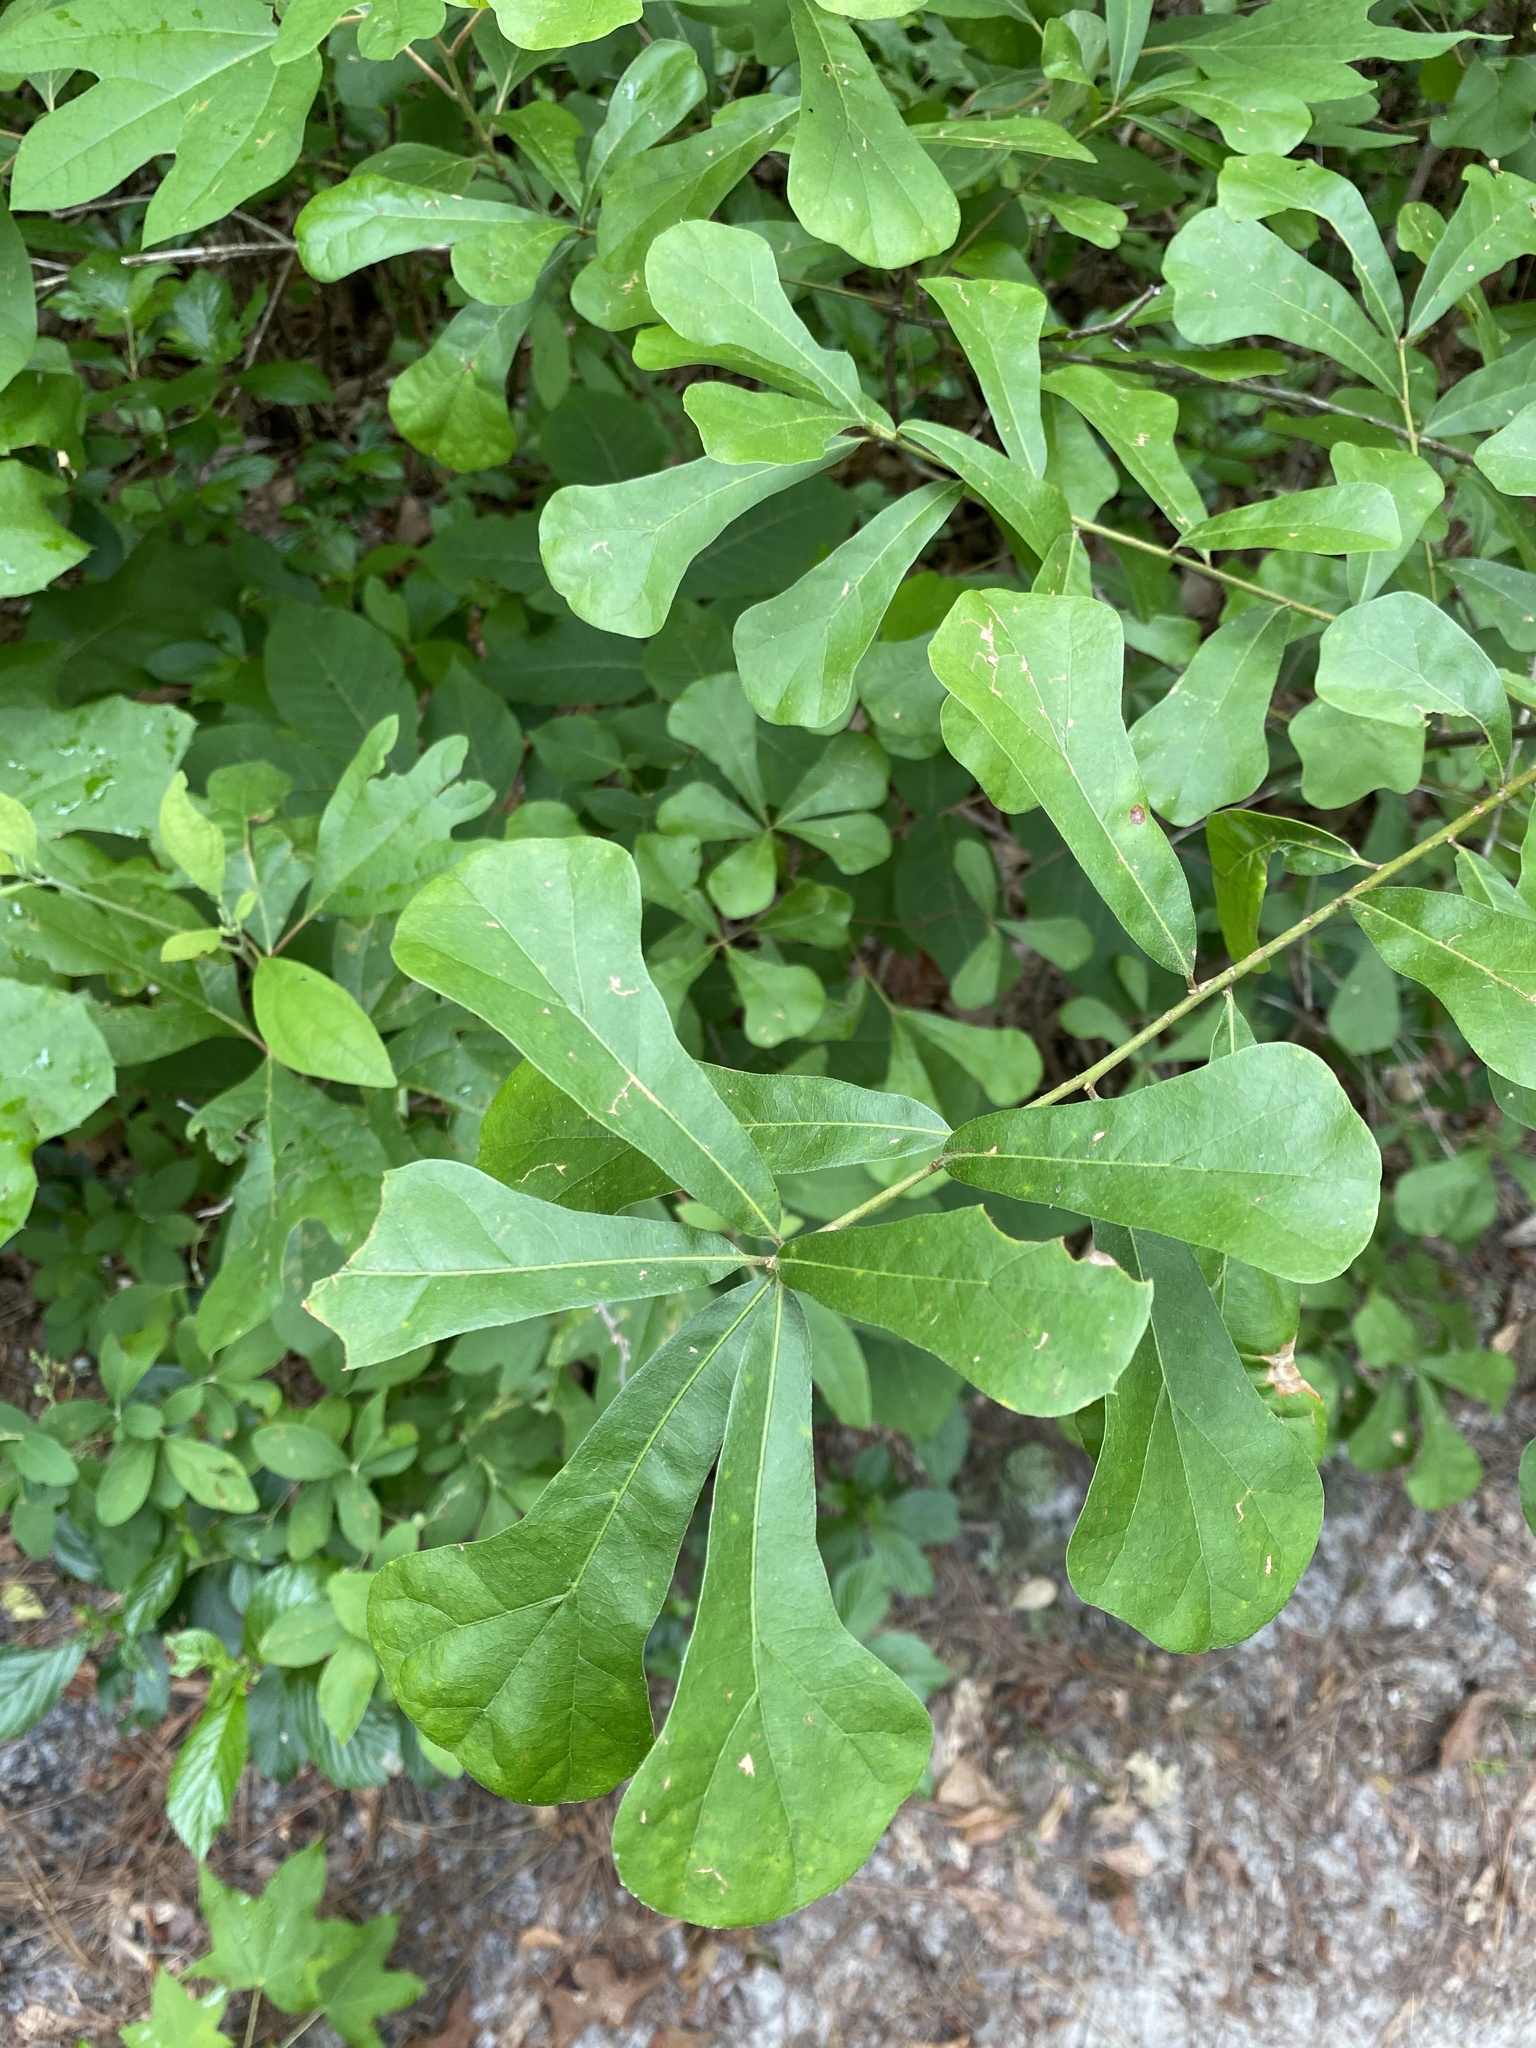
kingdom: Plantae
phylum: Tracheophyta
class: Magnoliopsida
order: Fagales
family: Fagaceae
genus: Quercus
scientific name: Quercus nigra
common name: Water oak
